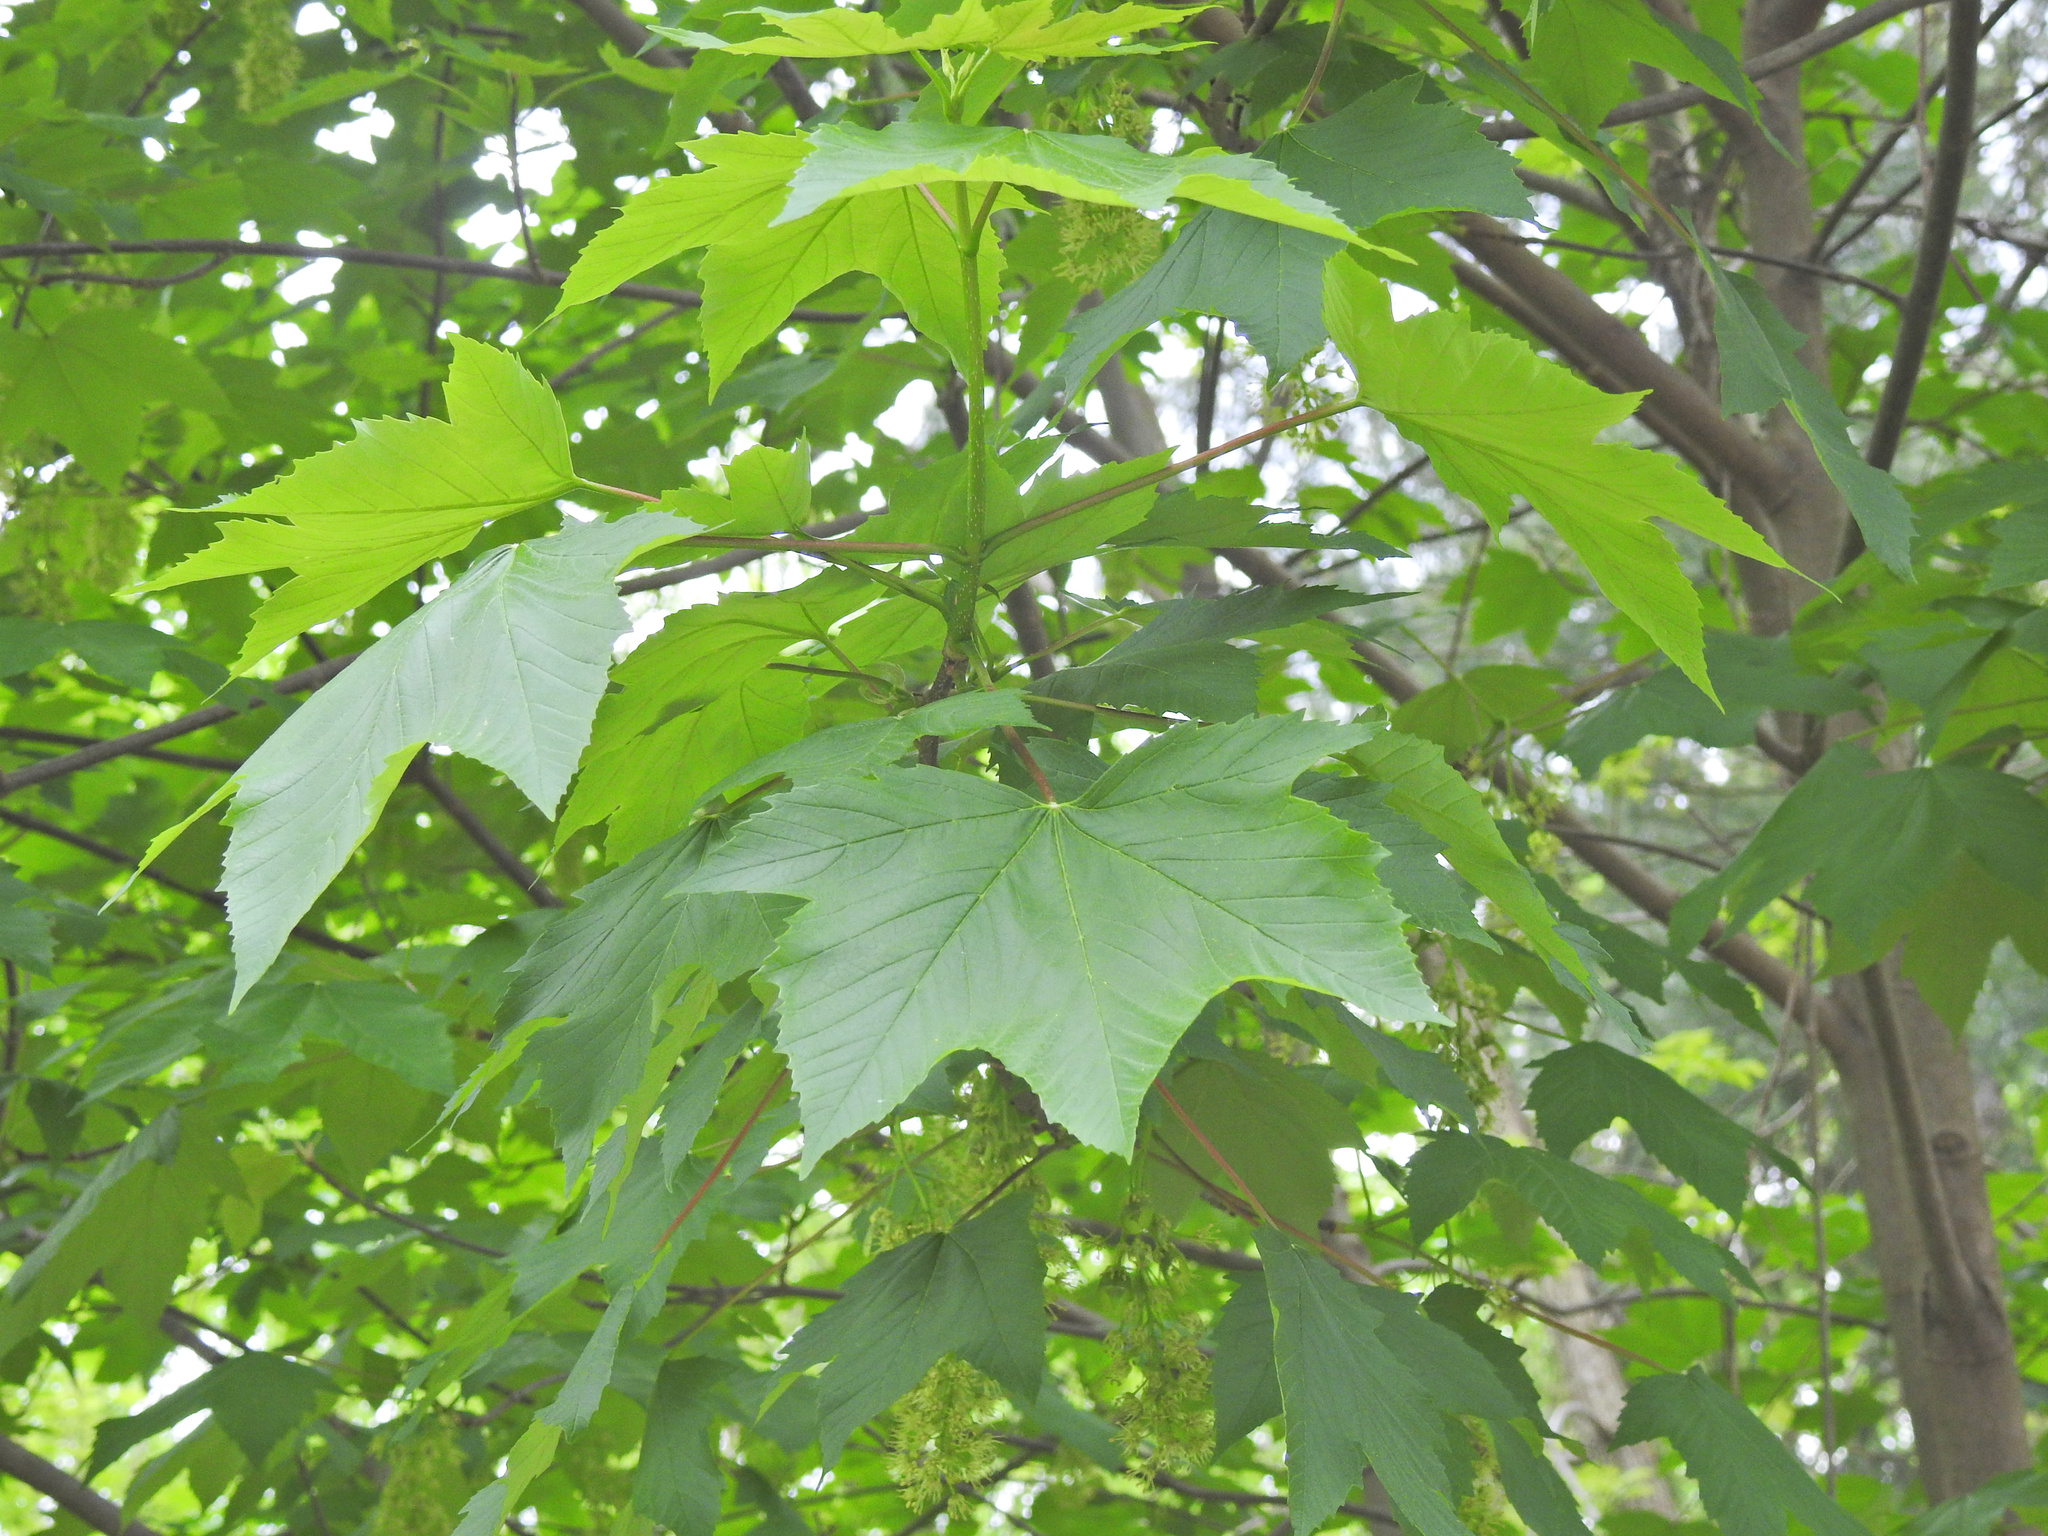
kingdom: Plantae
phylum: Tracheophyta
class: Magnoliopsida
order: Sapindales
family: Sapindaceae
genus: Acer
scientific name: Acer pseudoplatanus
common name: Sycamore
